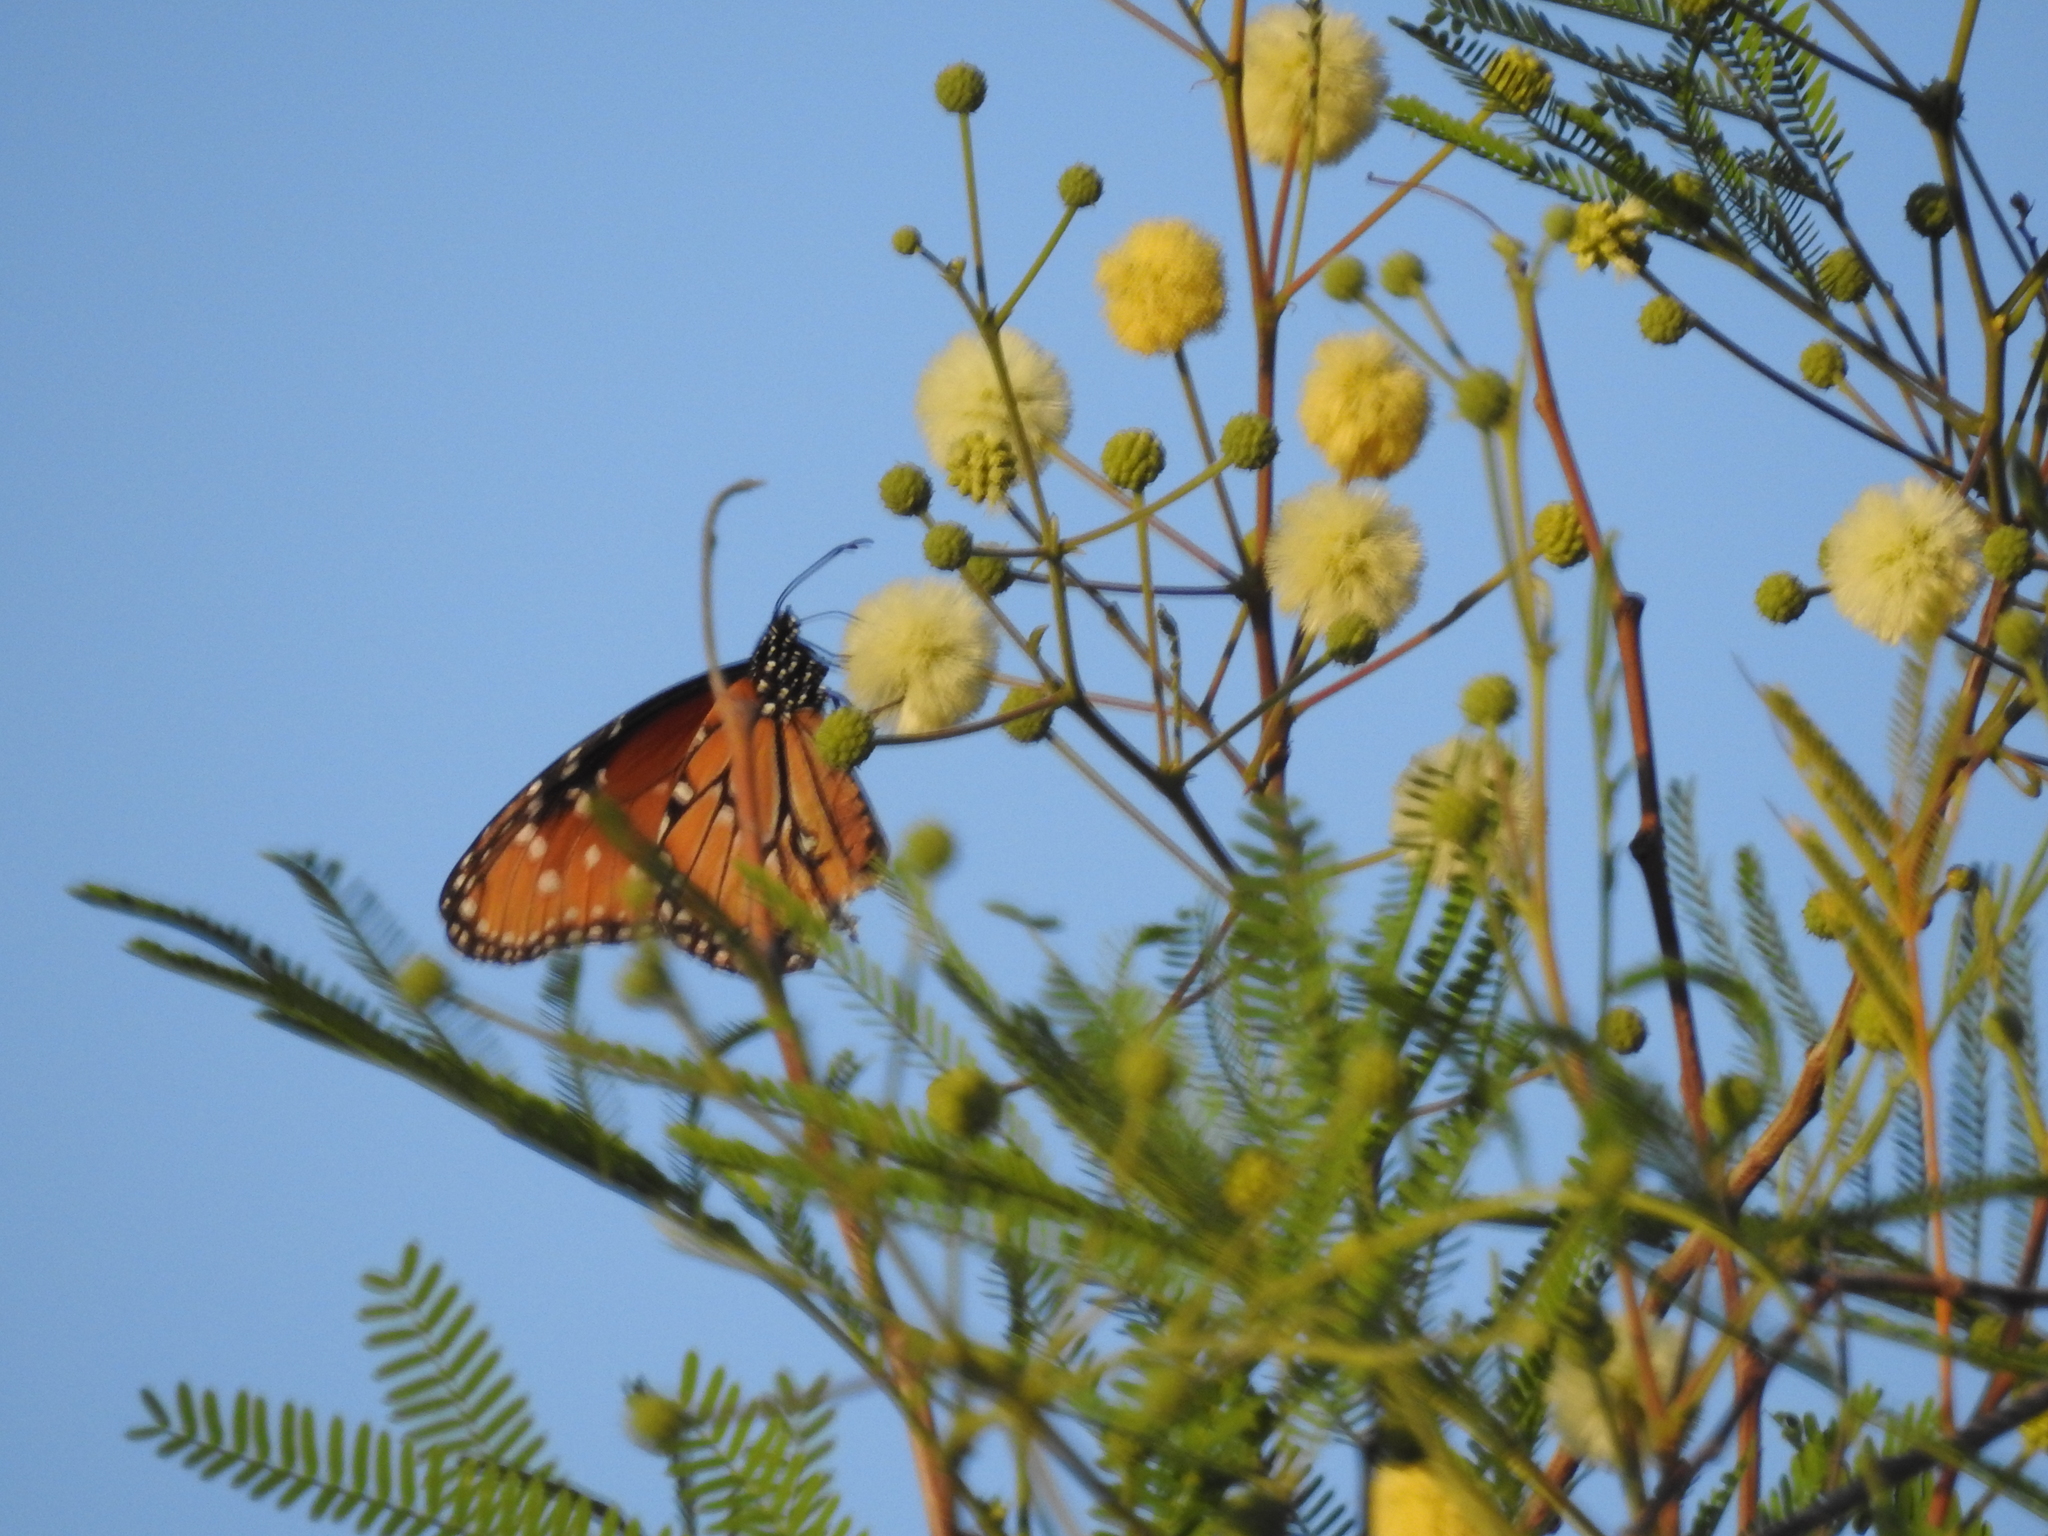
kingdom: Animalia
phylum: Arthropoda
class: Insecta
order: Lepidoptera
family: Nymphalidae
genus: Danaus
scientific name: Danaus gilippus
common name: Queen
